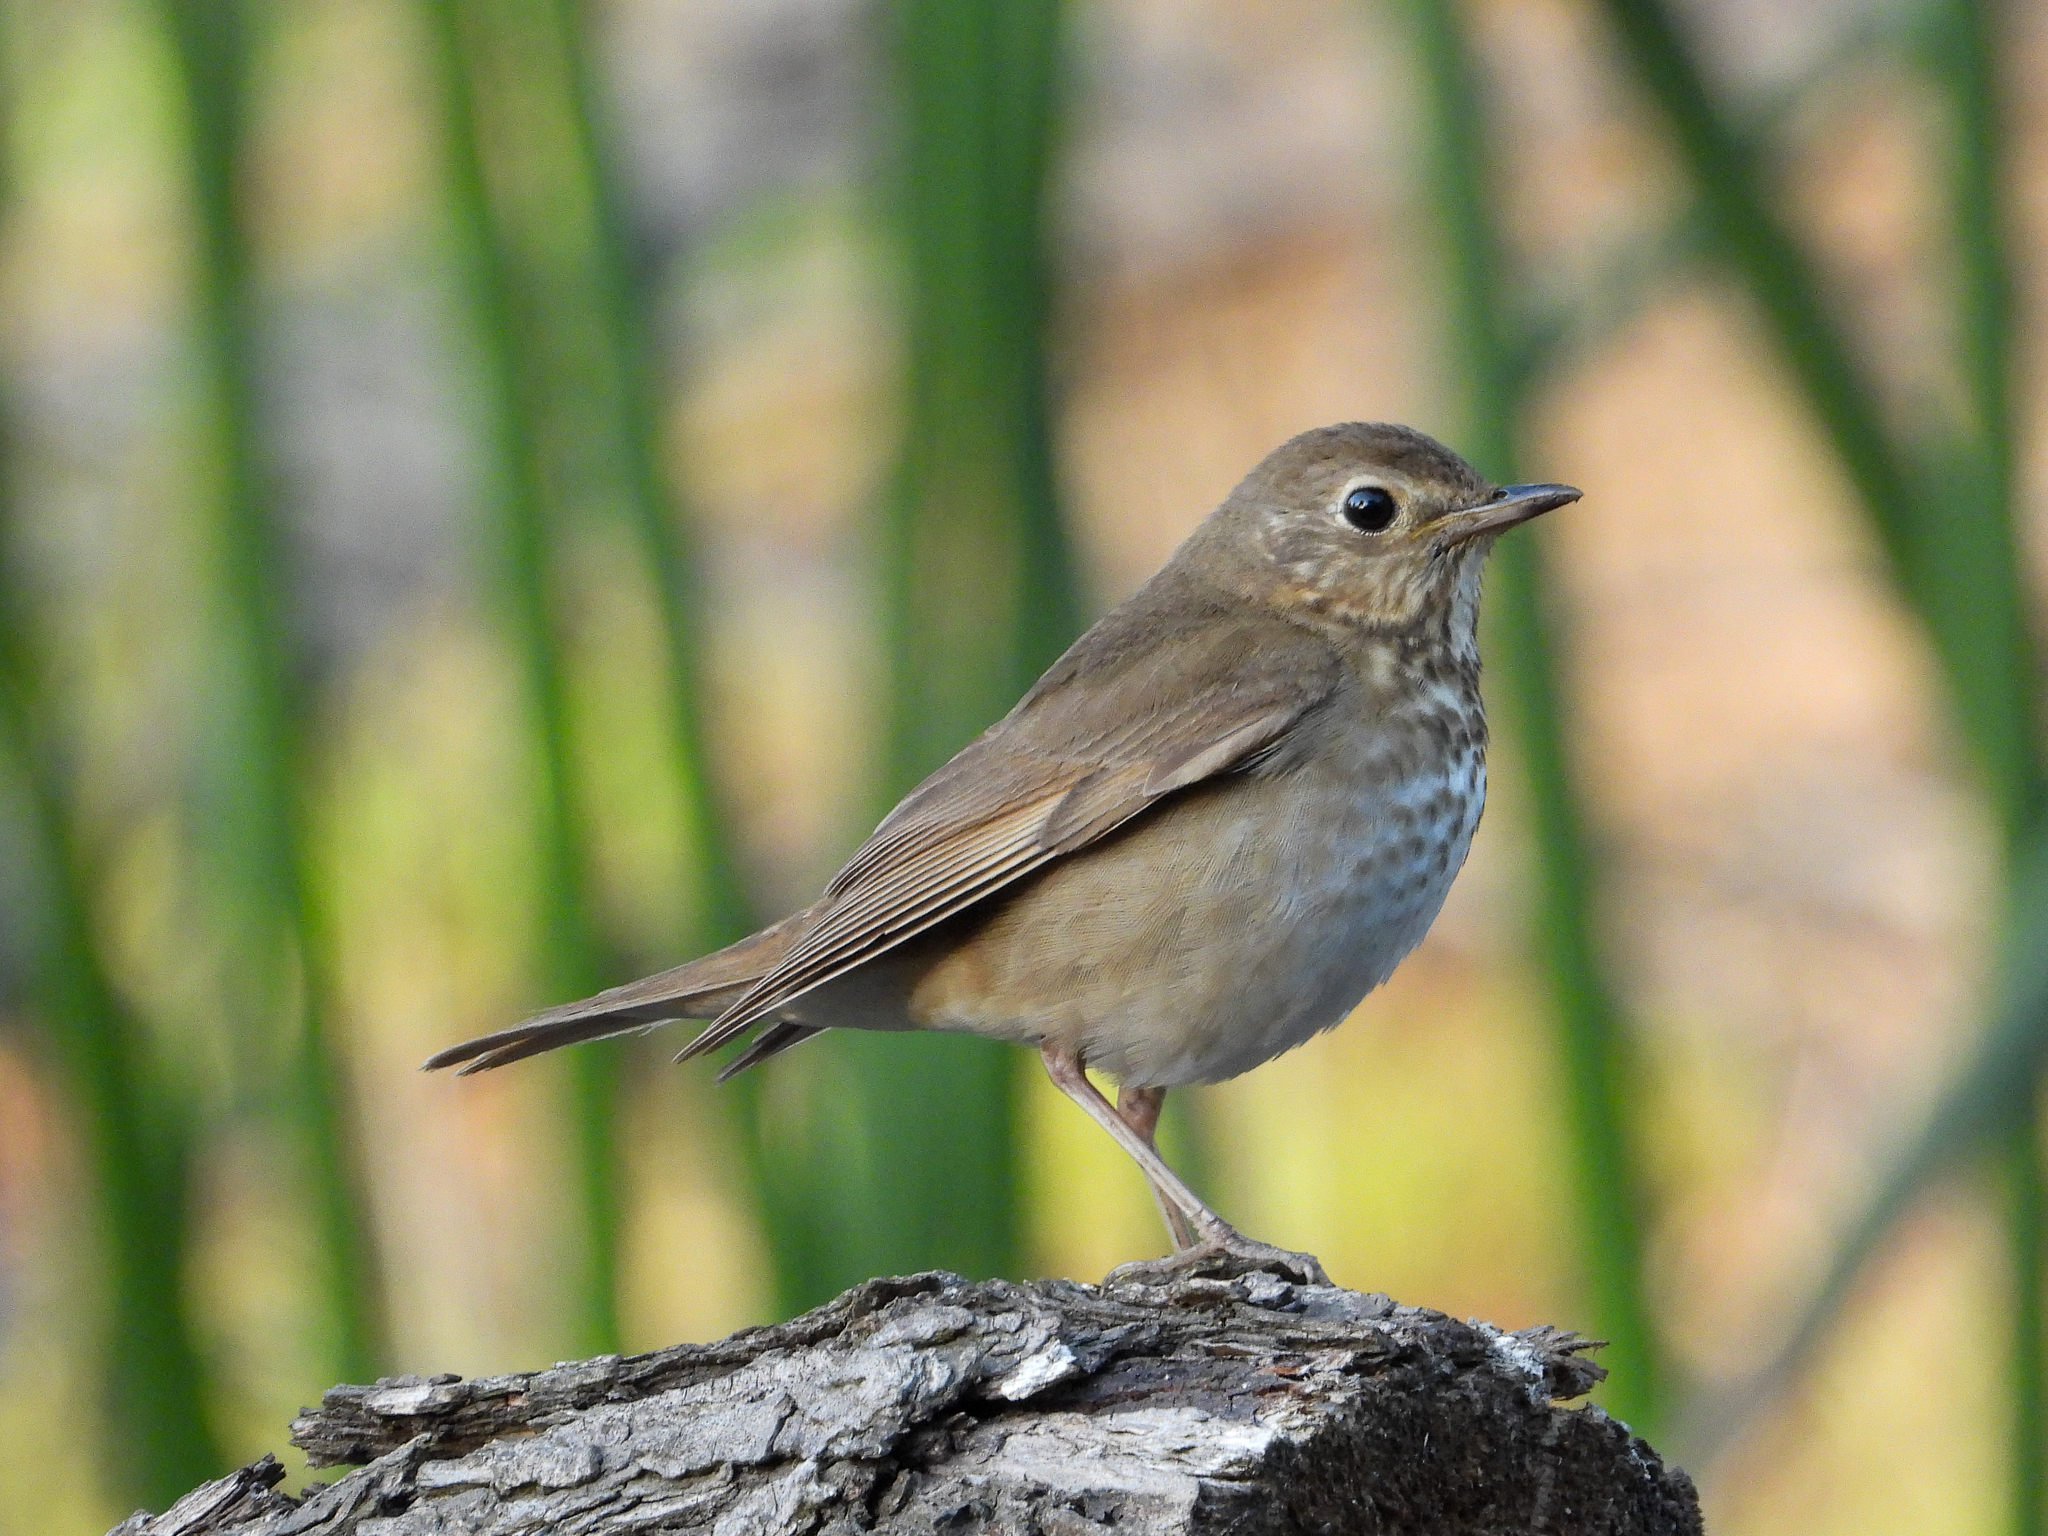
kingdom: Animalia
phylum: Chordata
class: Aves
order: Passeriformes
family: Turdidae
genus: Catharus
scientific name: Catharus ustulatus
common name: Swainson's thrush
